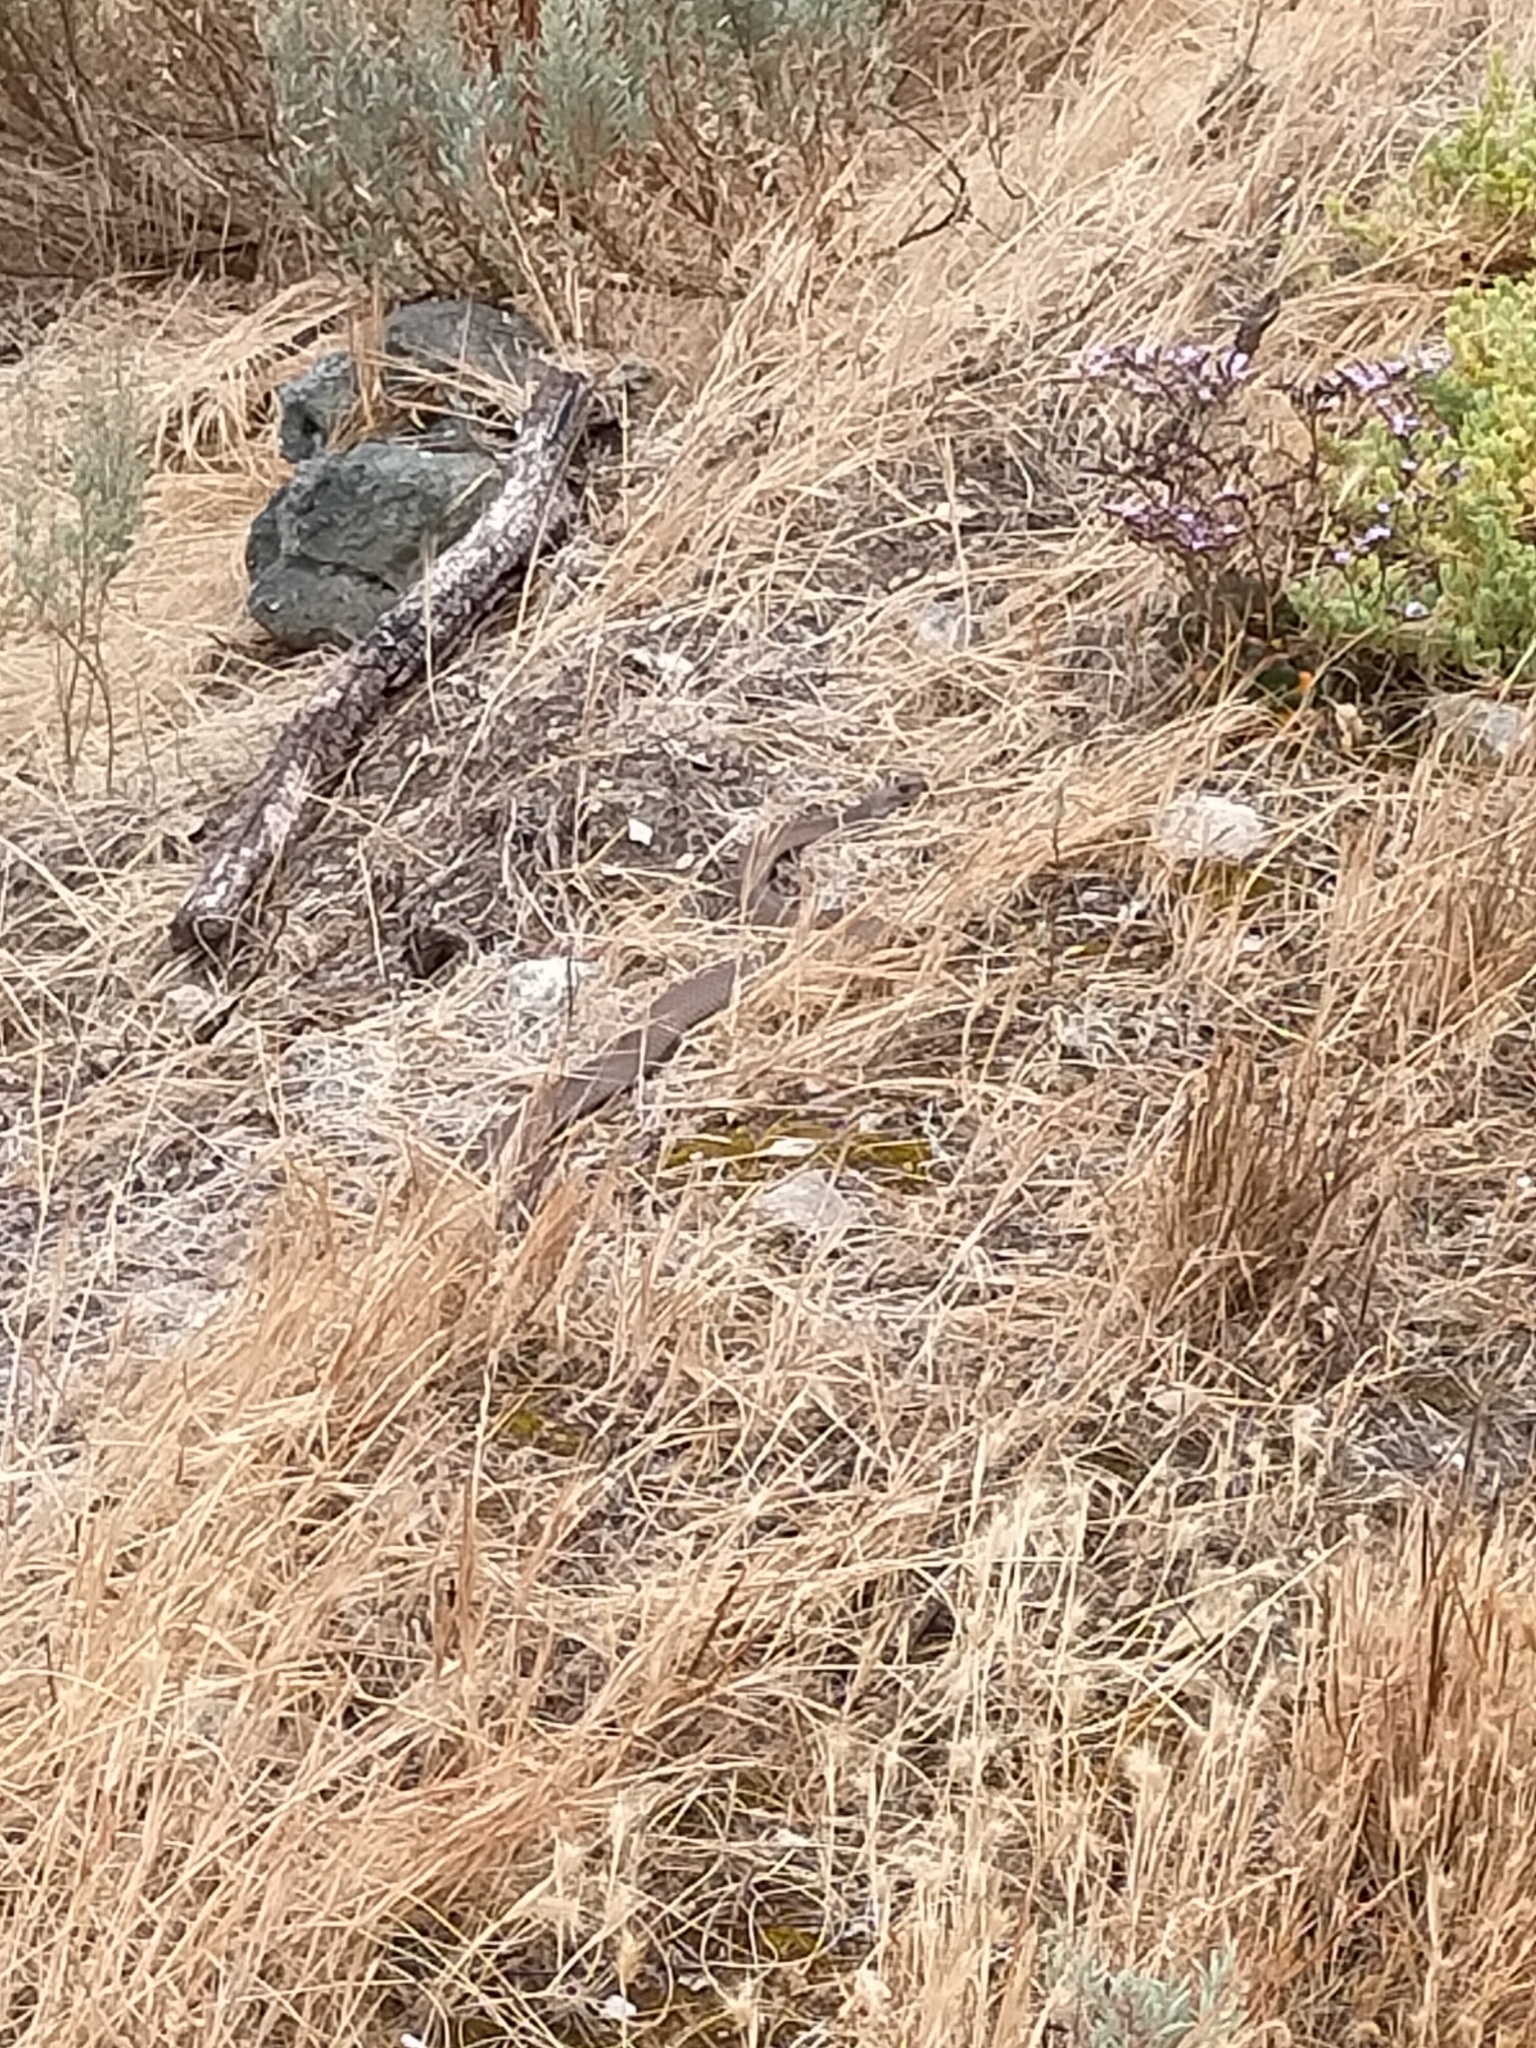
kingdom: Animalia
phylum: Chordata
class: Squamata
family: Elapidae
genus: Pseudonaja
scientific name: Pseudonaja textilis
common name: Eastern brown snake
